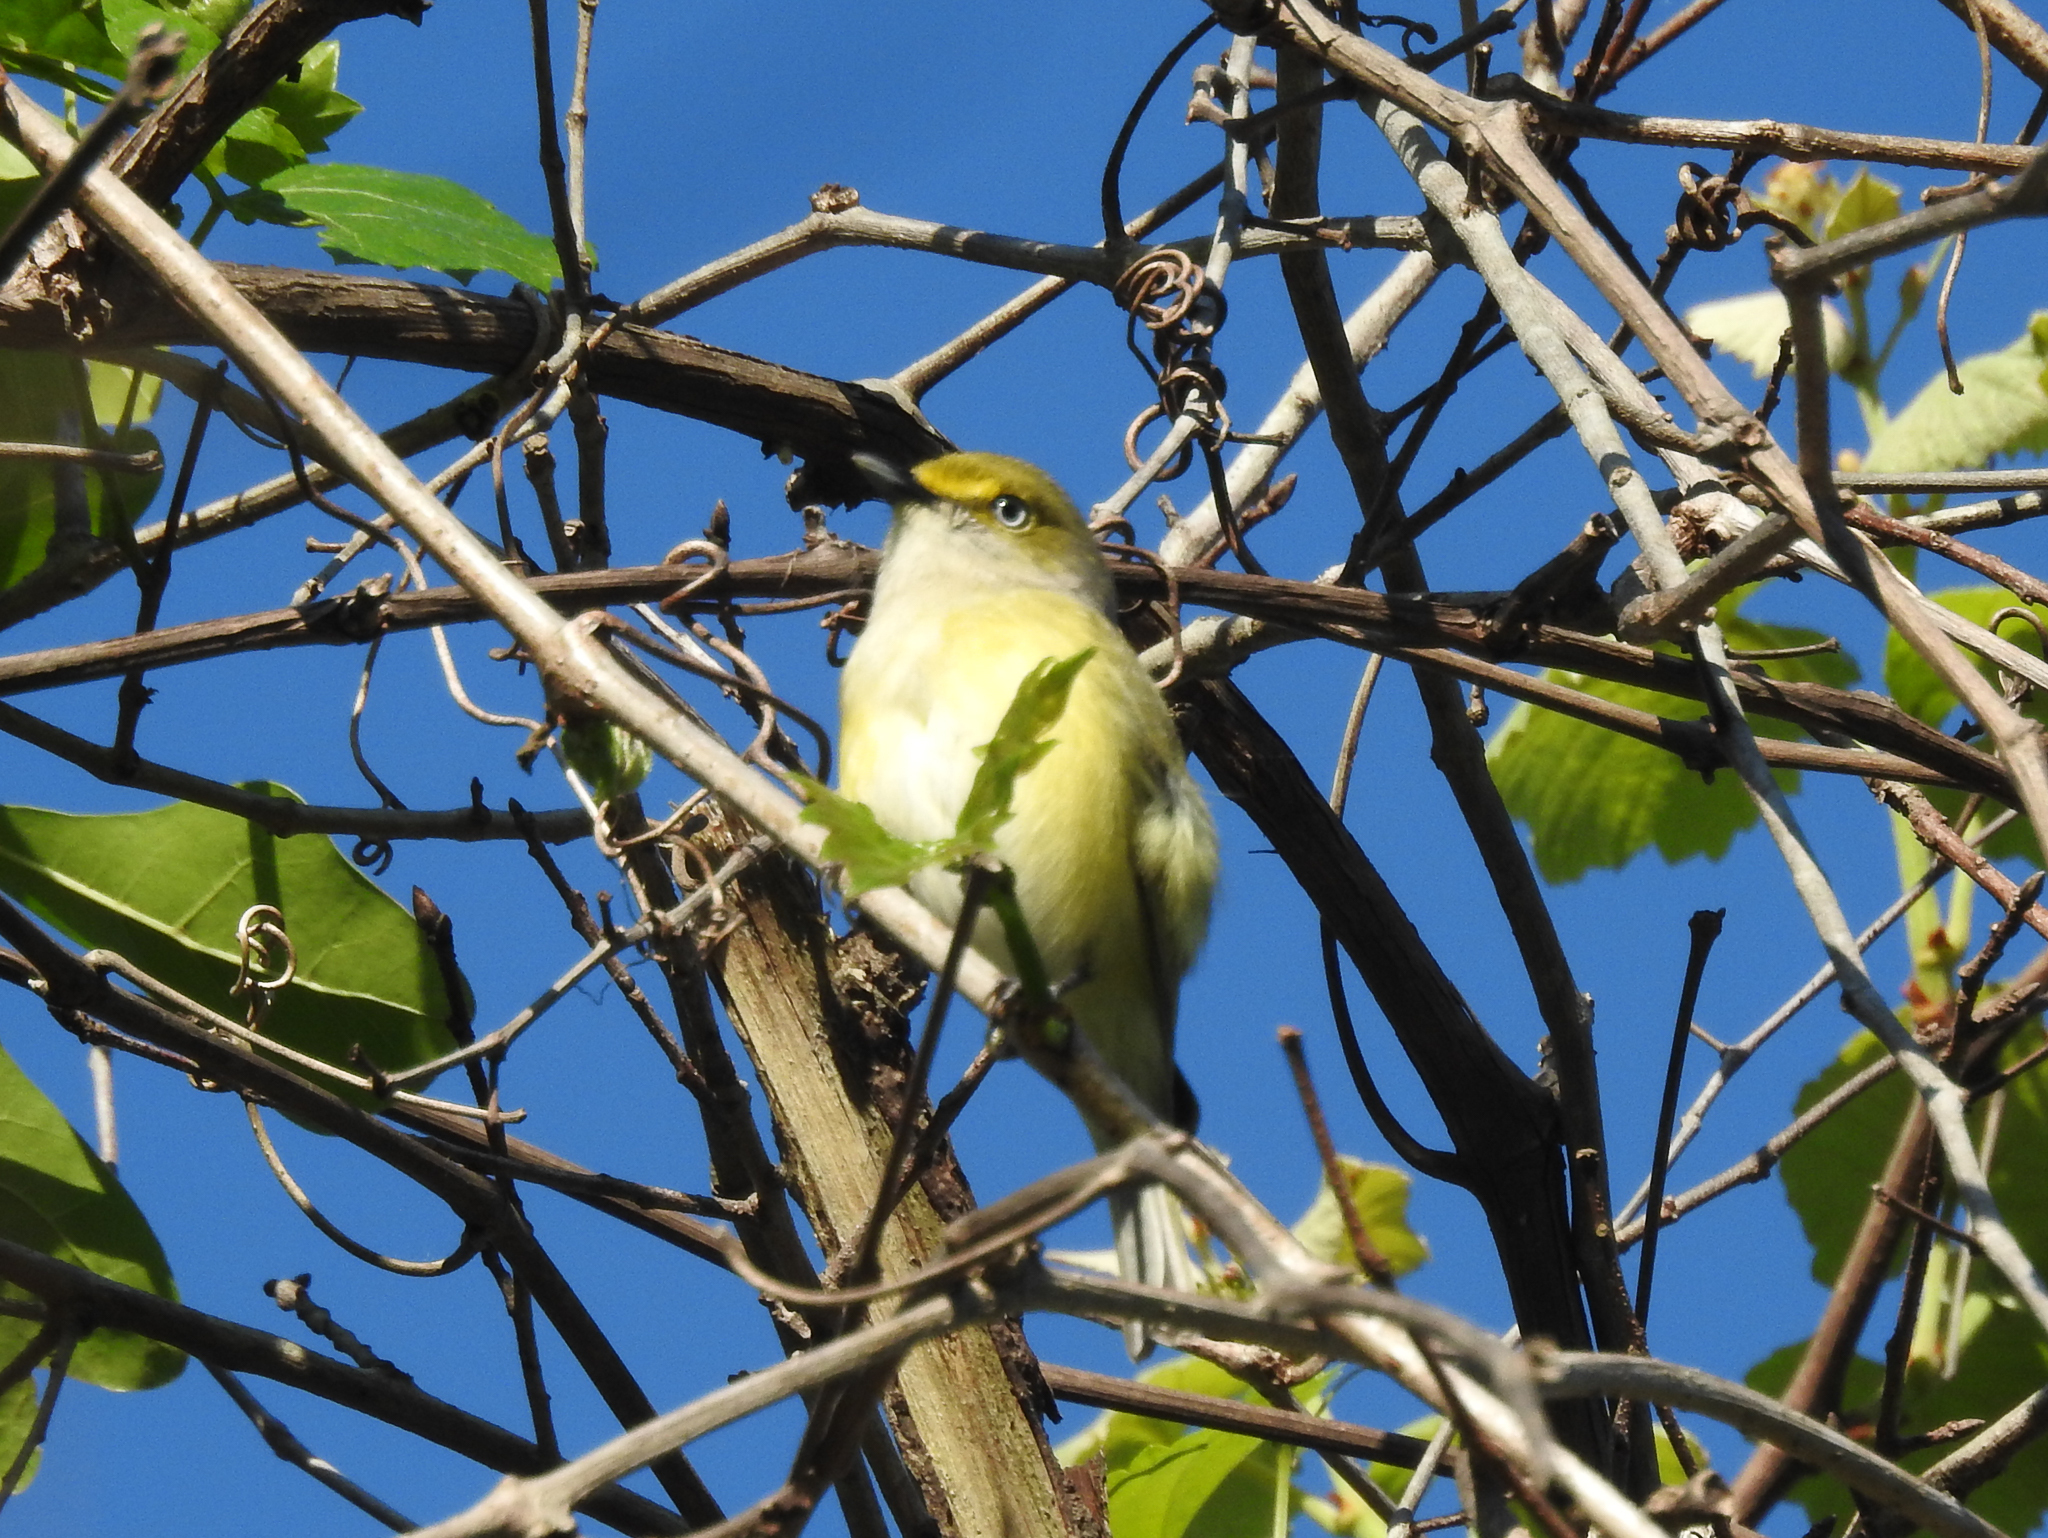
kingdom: Animalia
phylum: Chordata
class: Aves
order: Passeriformes
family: Vireonidae
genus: Vireo
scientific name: Vireo griseus
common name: White-eyed vireo
